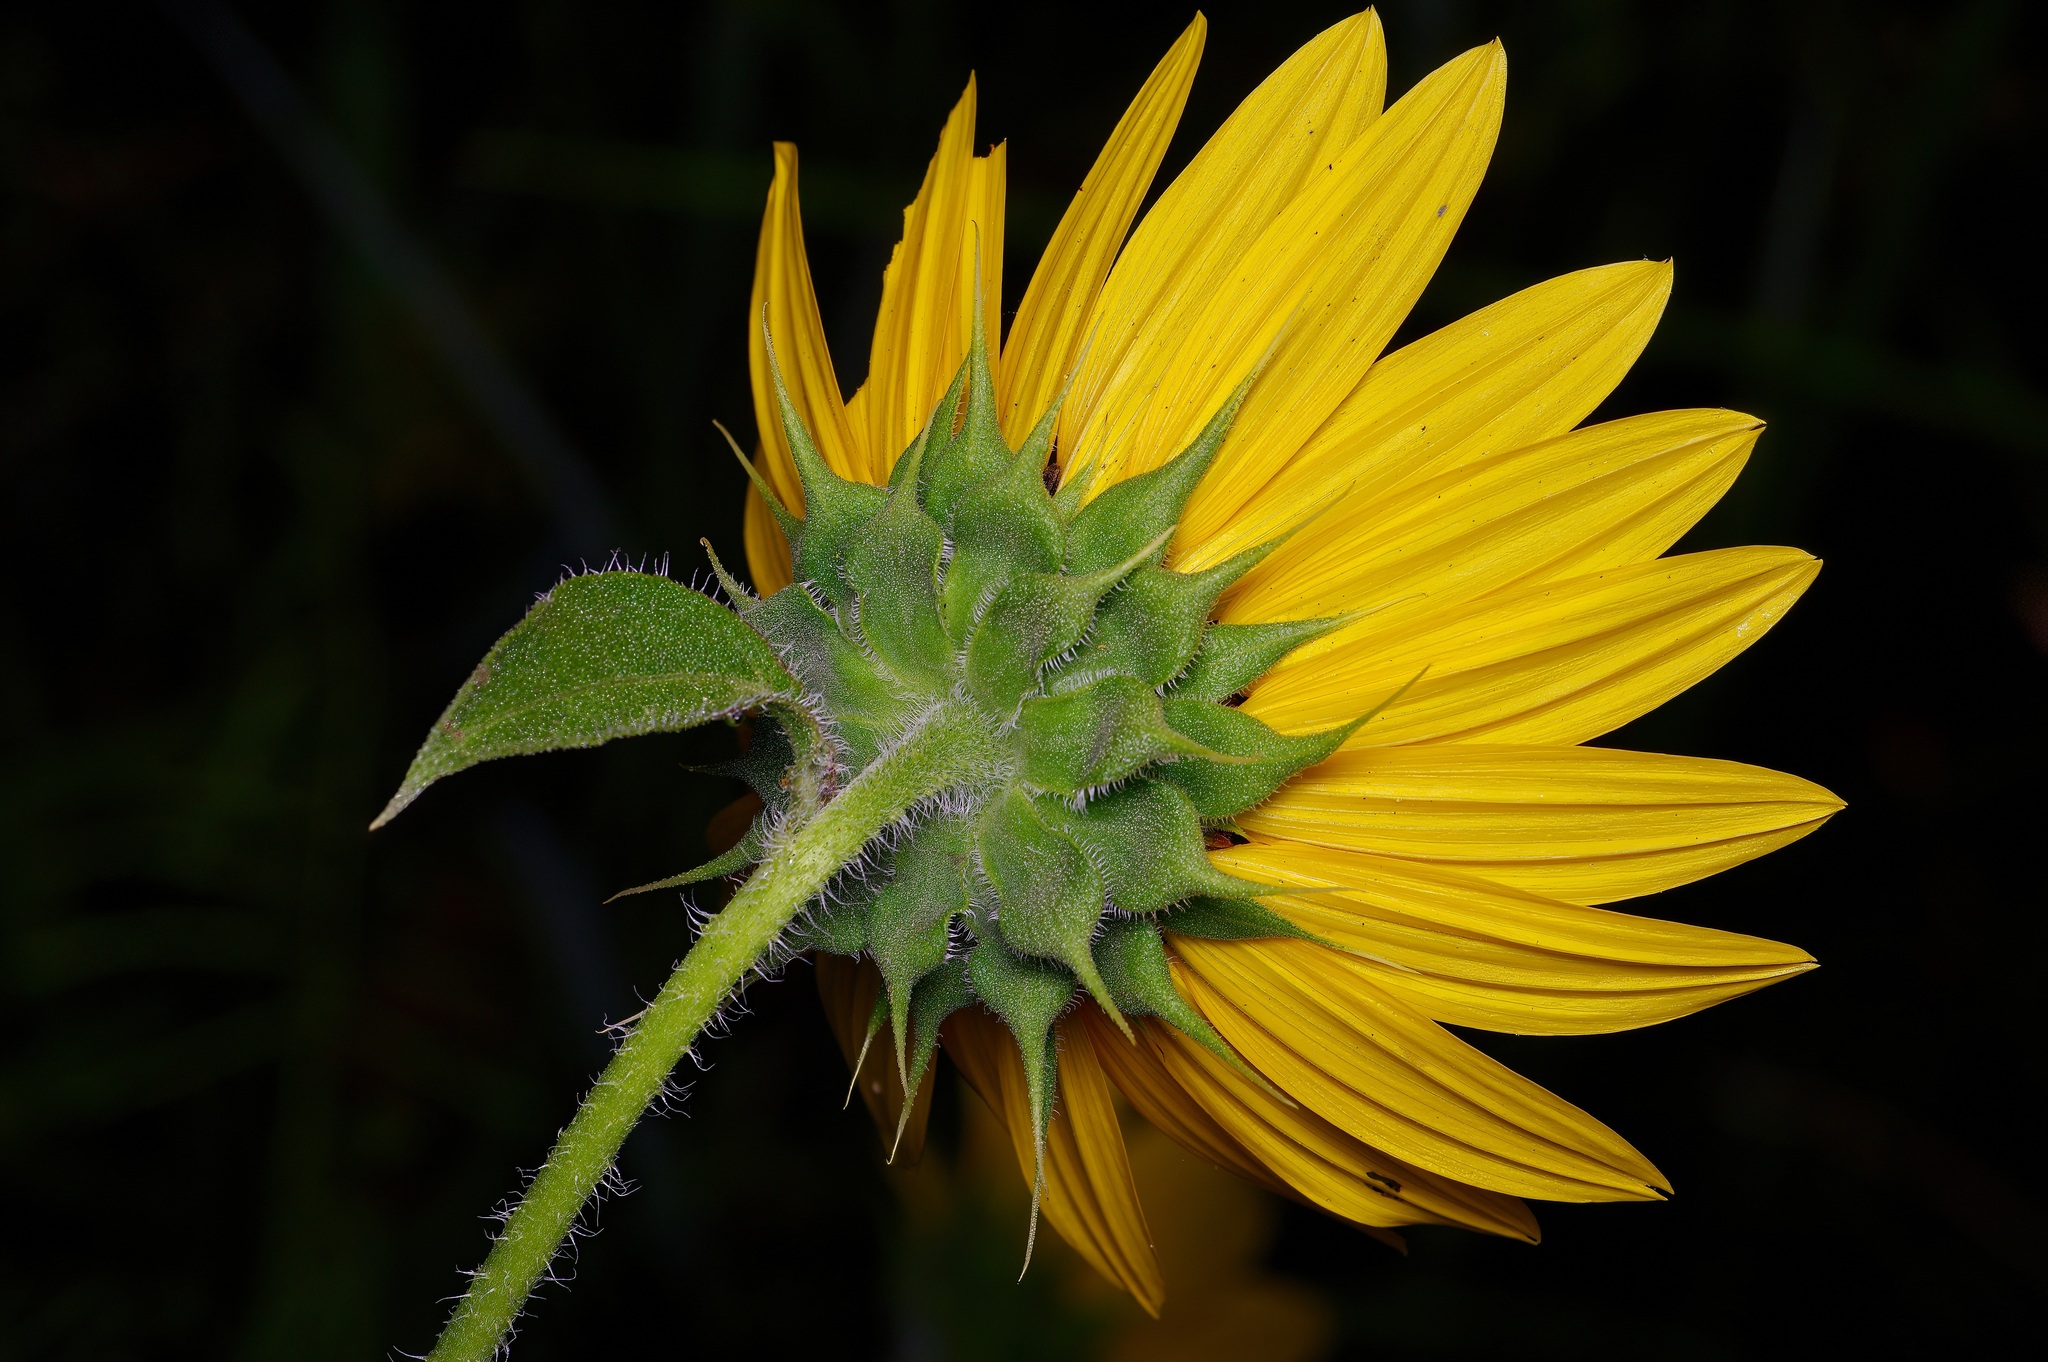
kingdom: Plantae
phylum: Tracheophyta
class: Magnoliopsida
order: Asterales
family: Asteraceae
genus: Helianthus
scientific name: Helianthus annuus
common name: Sunflower
